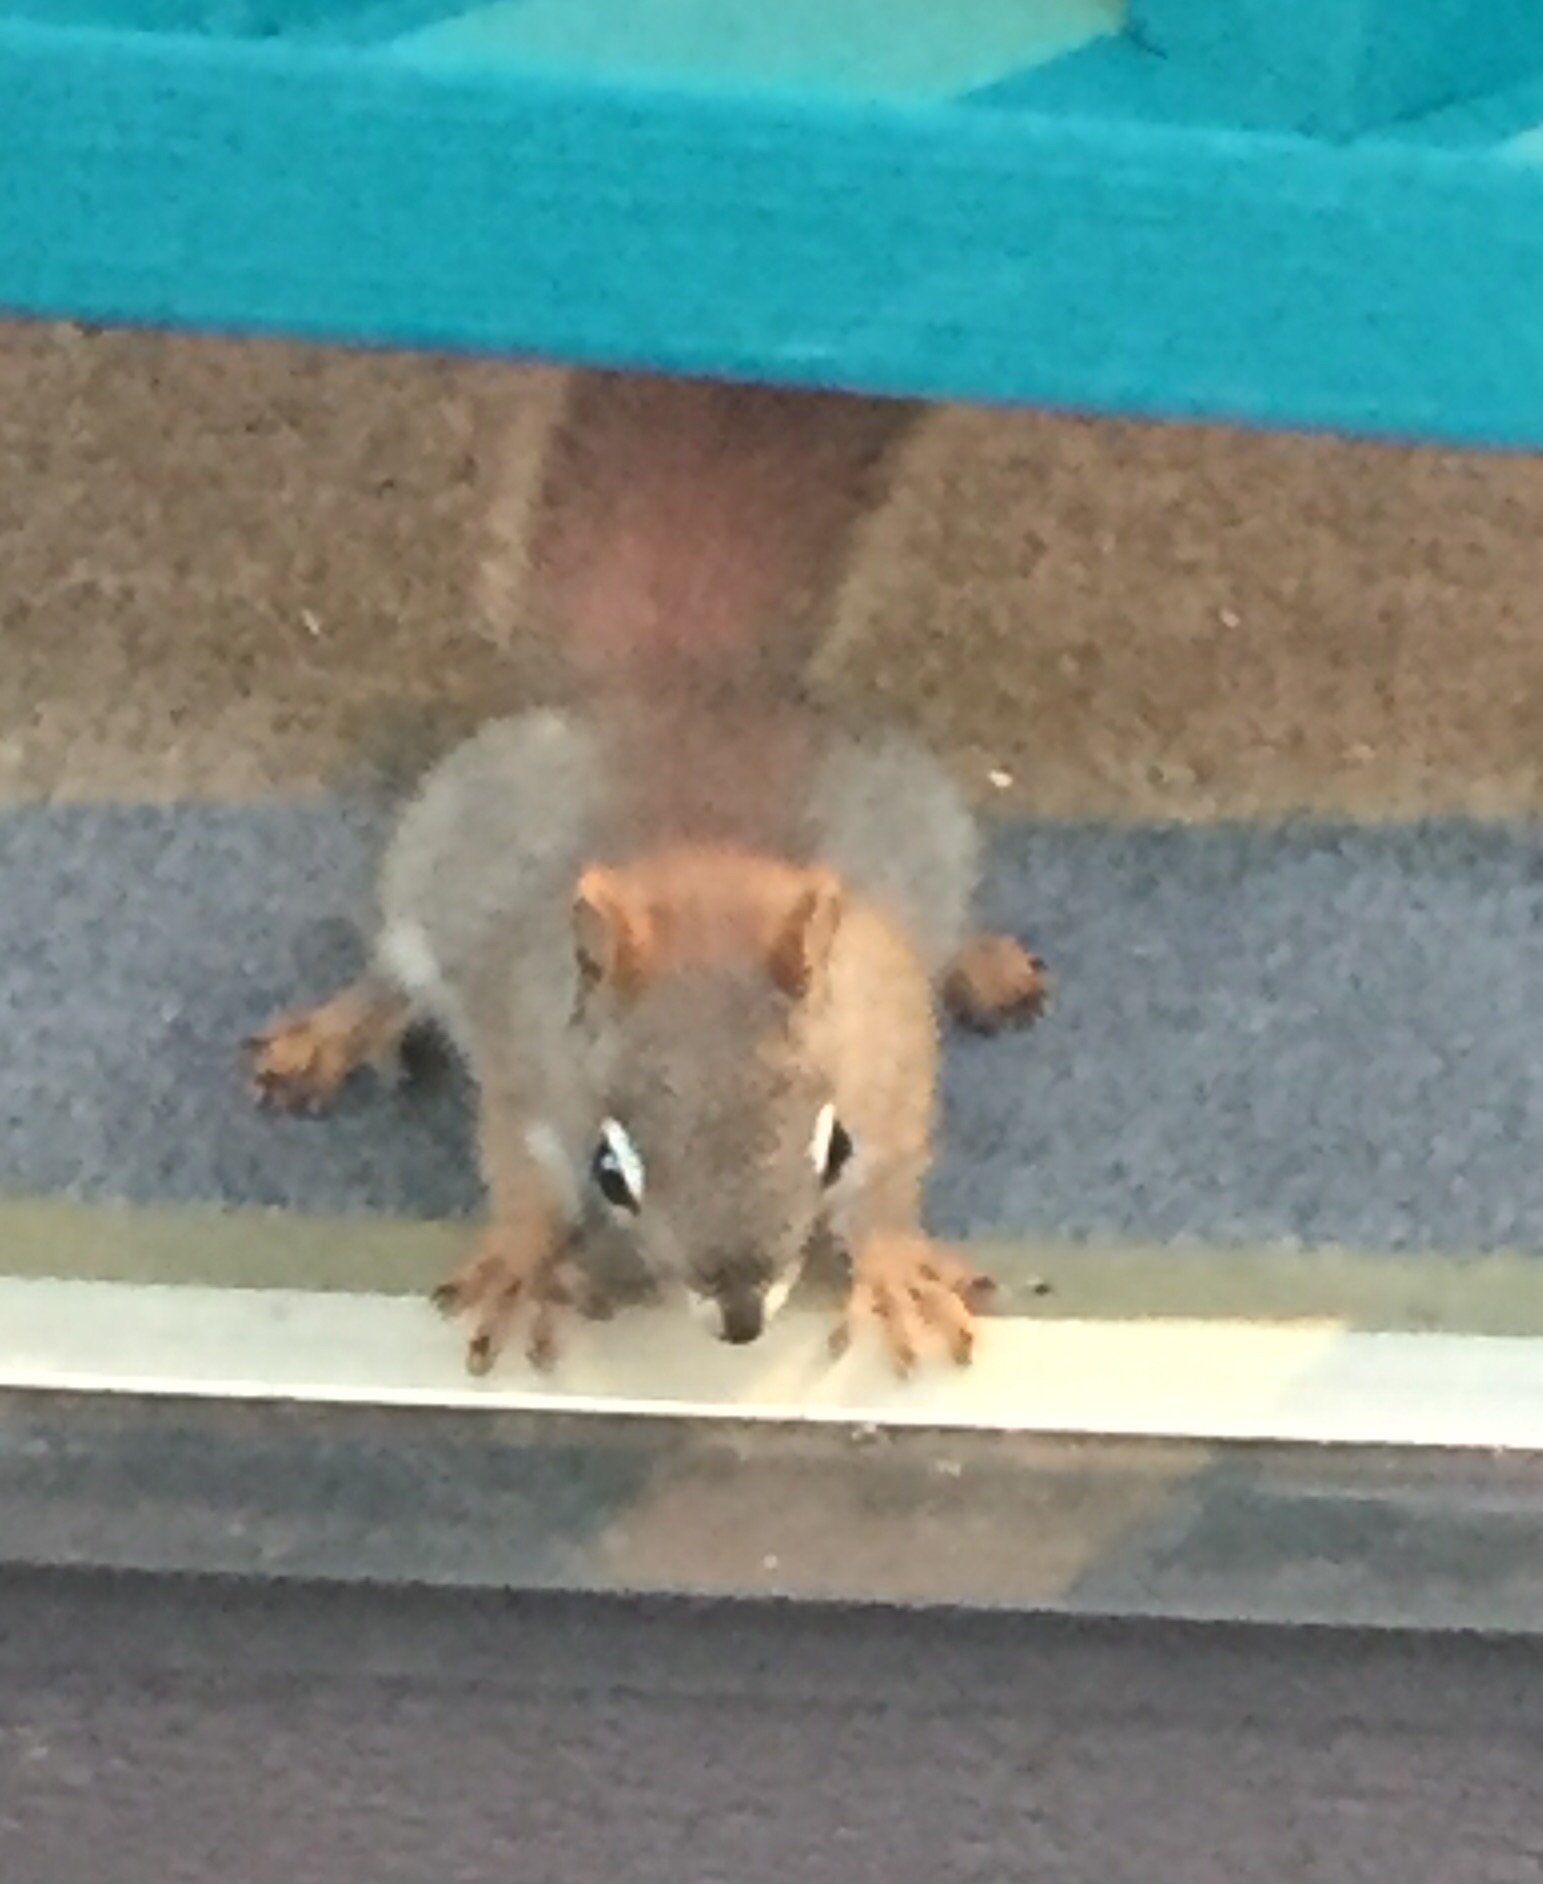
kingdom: Animalia
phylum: Chordata
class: Mammalia
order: Rodentia
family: Sciuridae
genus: Tamiasciurus
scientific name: Tamiasciurus hudsonicus
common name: Red squirrel
